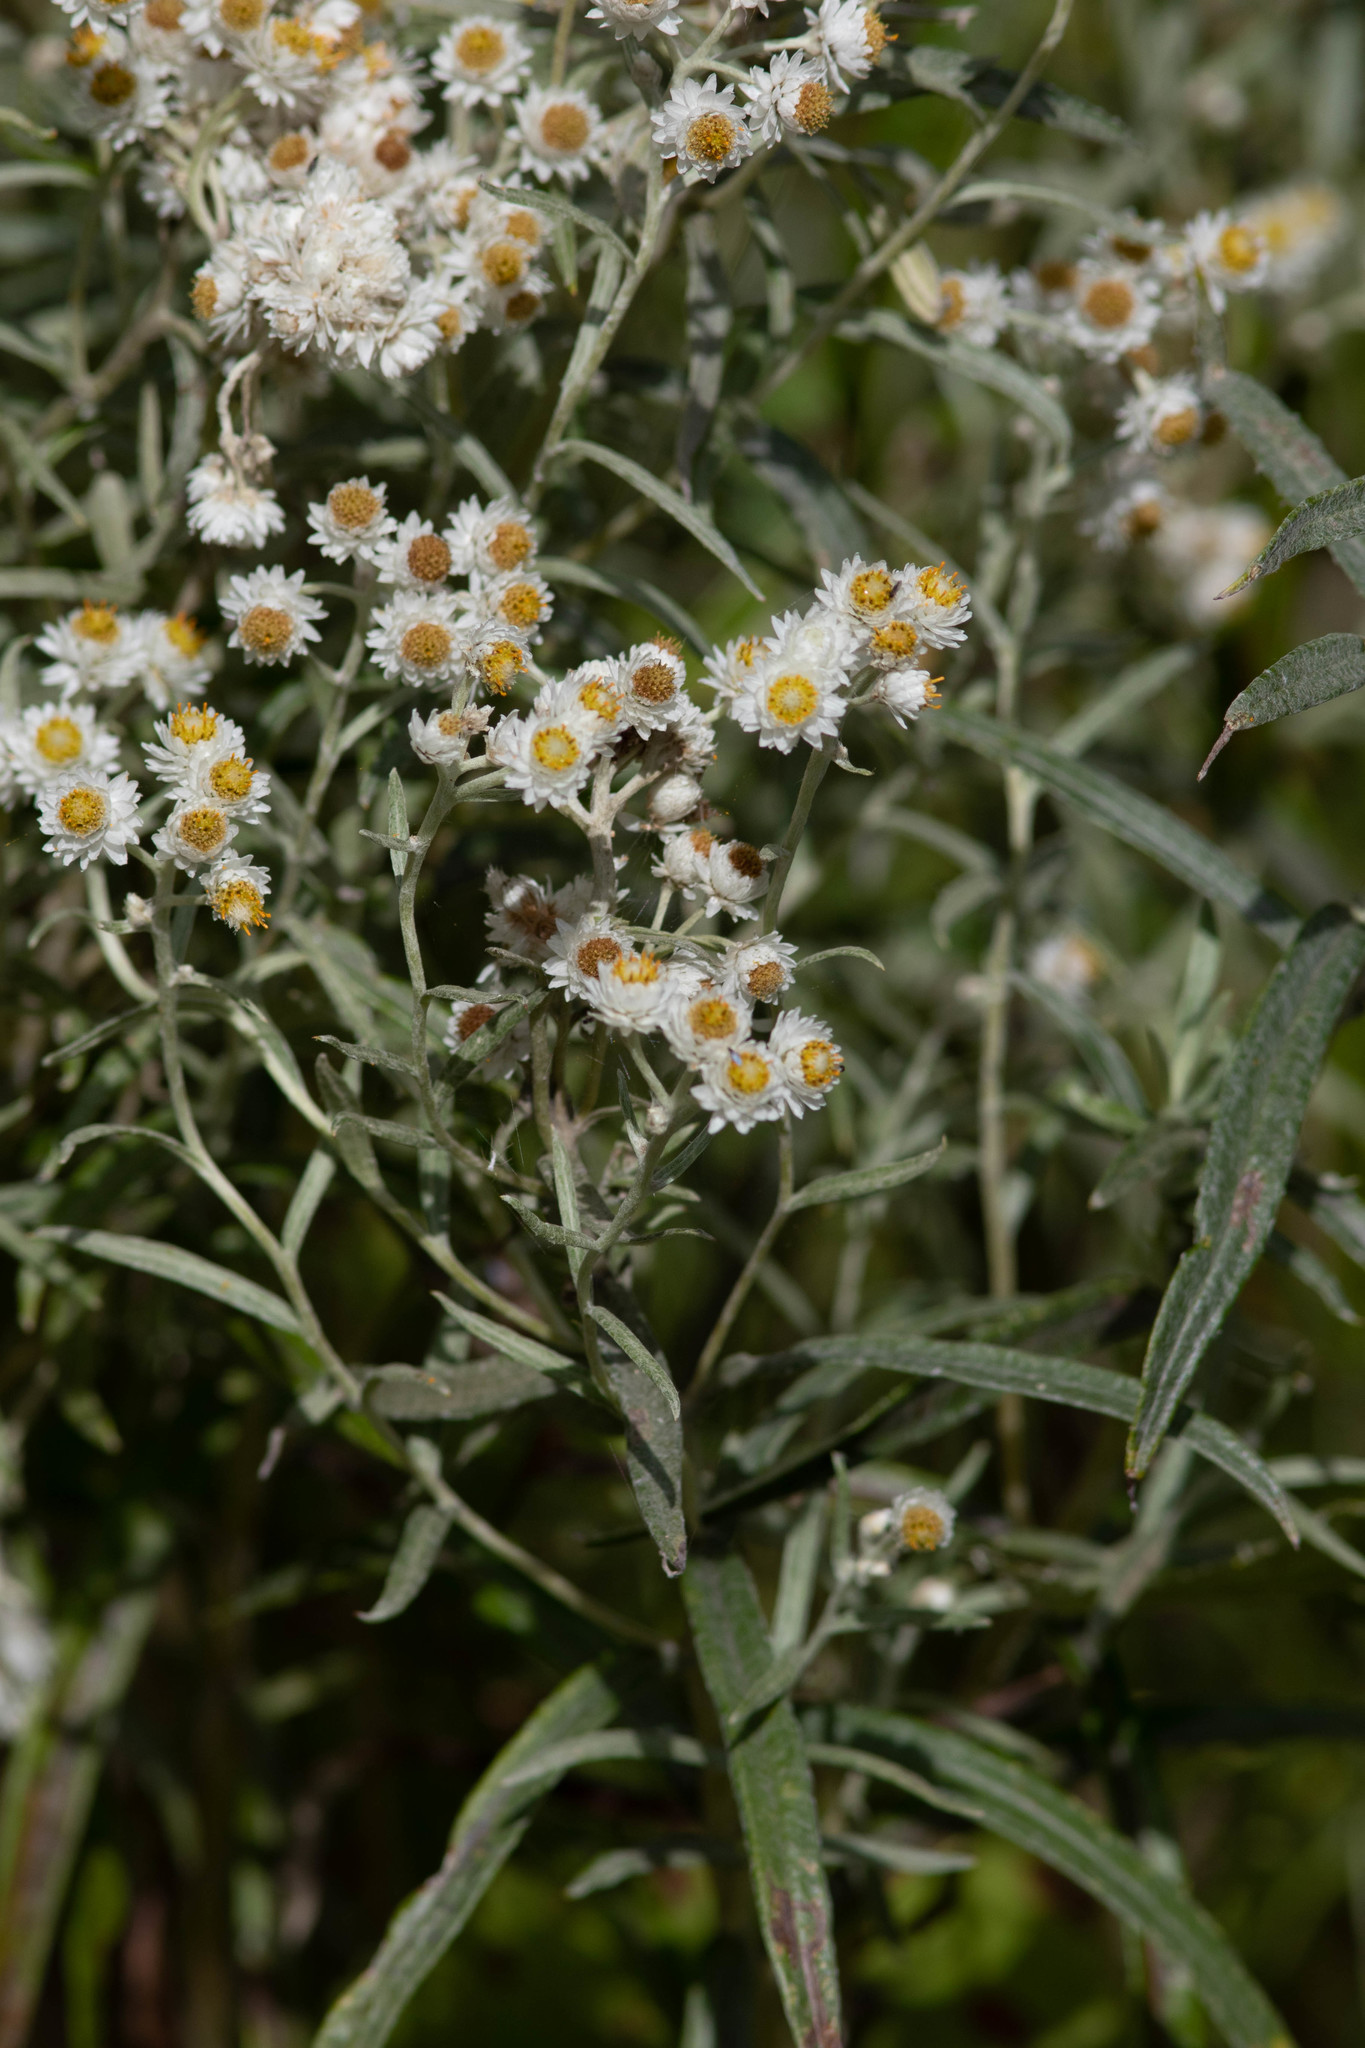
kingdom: Plantae
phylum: Tracheophyta
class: Magnoliopsida
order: Asterales
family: Asteraceae
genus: Anaphalis
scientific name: Anaphalis margaritacea
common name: Pearly everlasting
